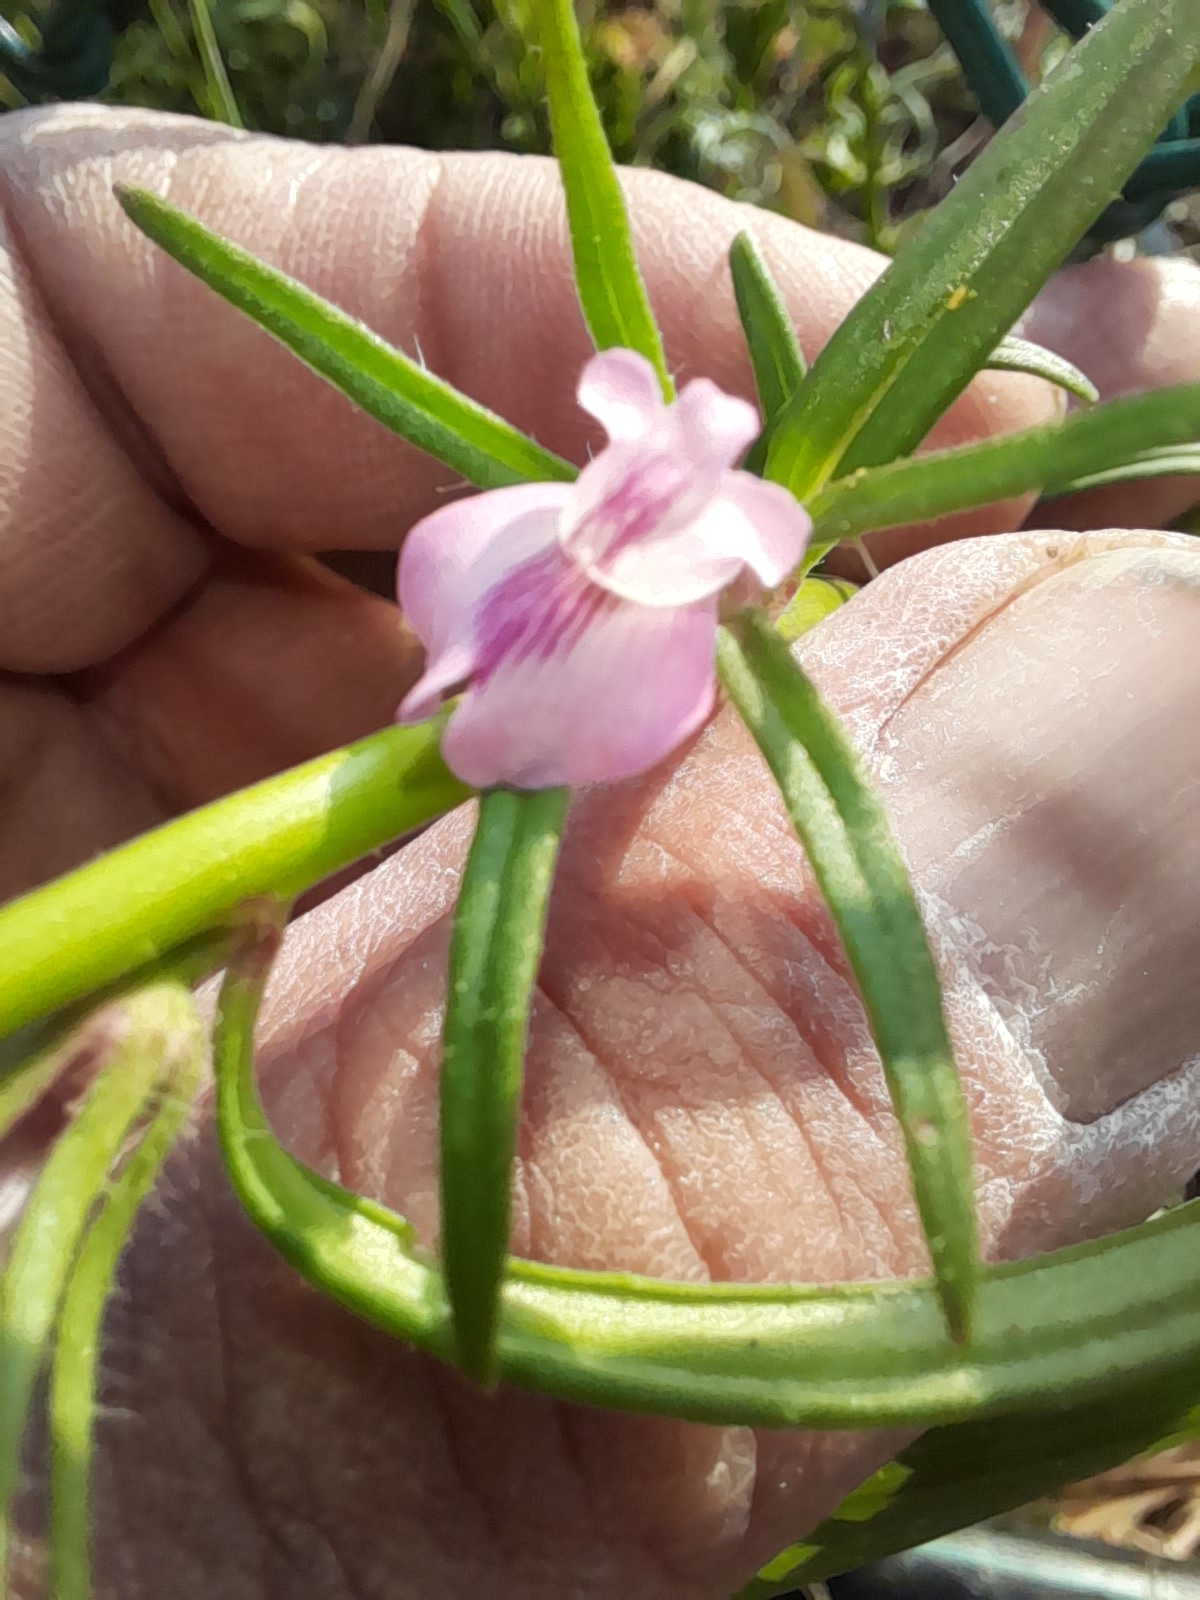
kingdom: Plantae
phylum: Tracheophyta
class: Magnoliopsida
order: Lamiales
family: Plantaginaceae
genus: Misopates
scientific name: Misopates orontium
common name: Weasel's-snout
